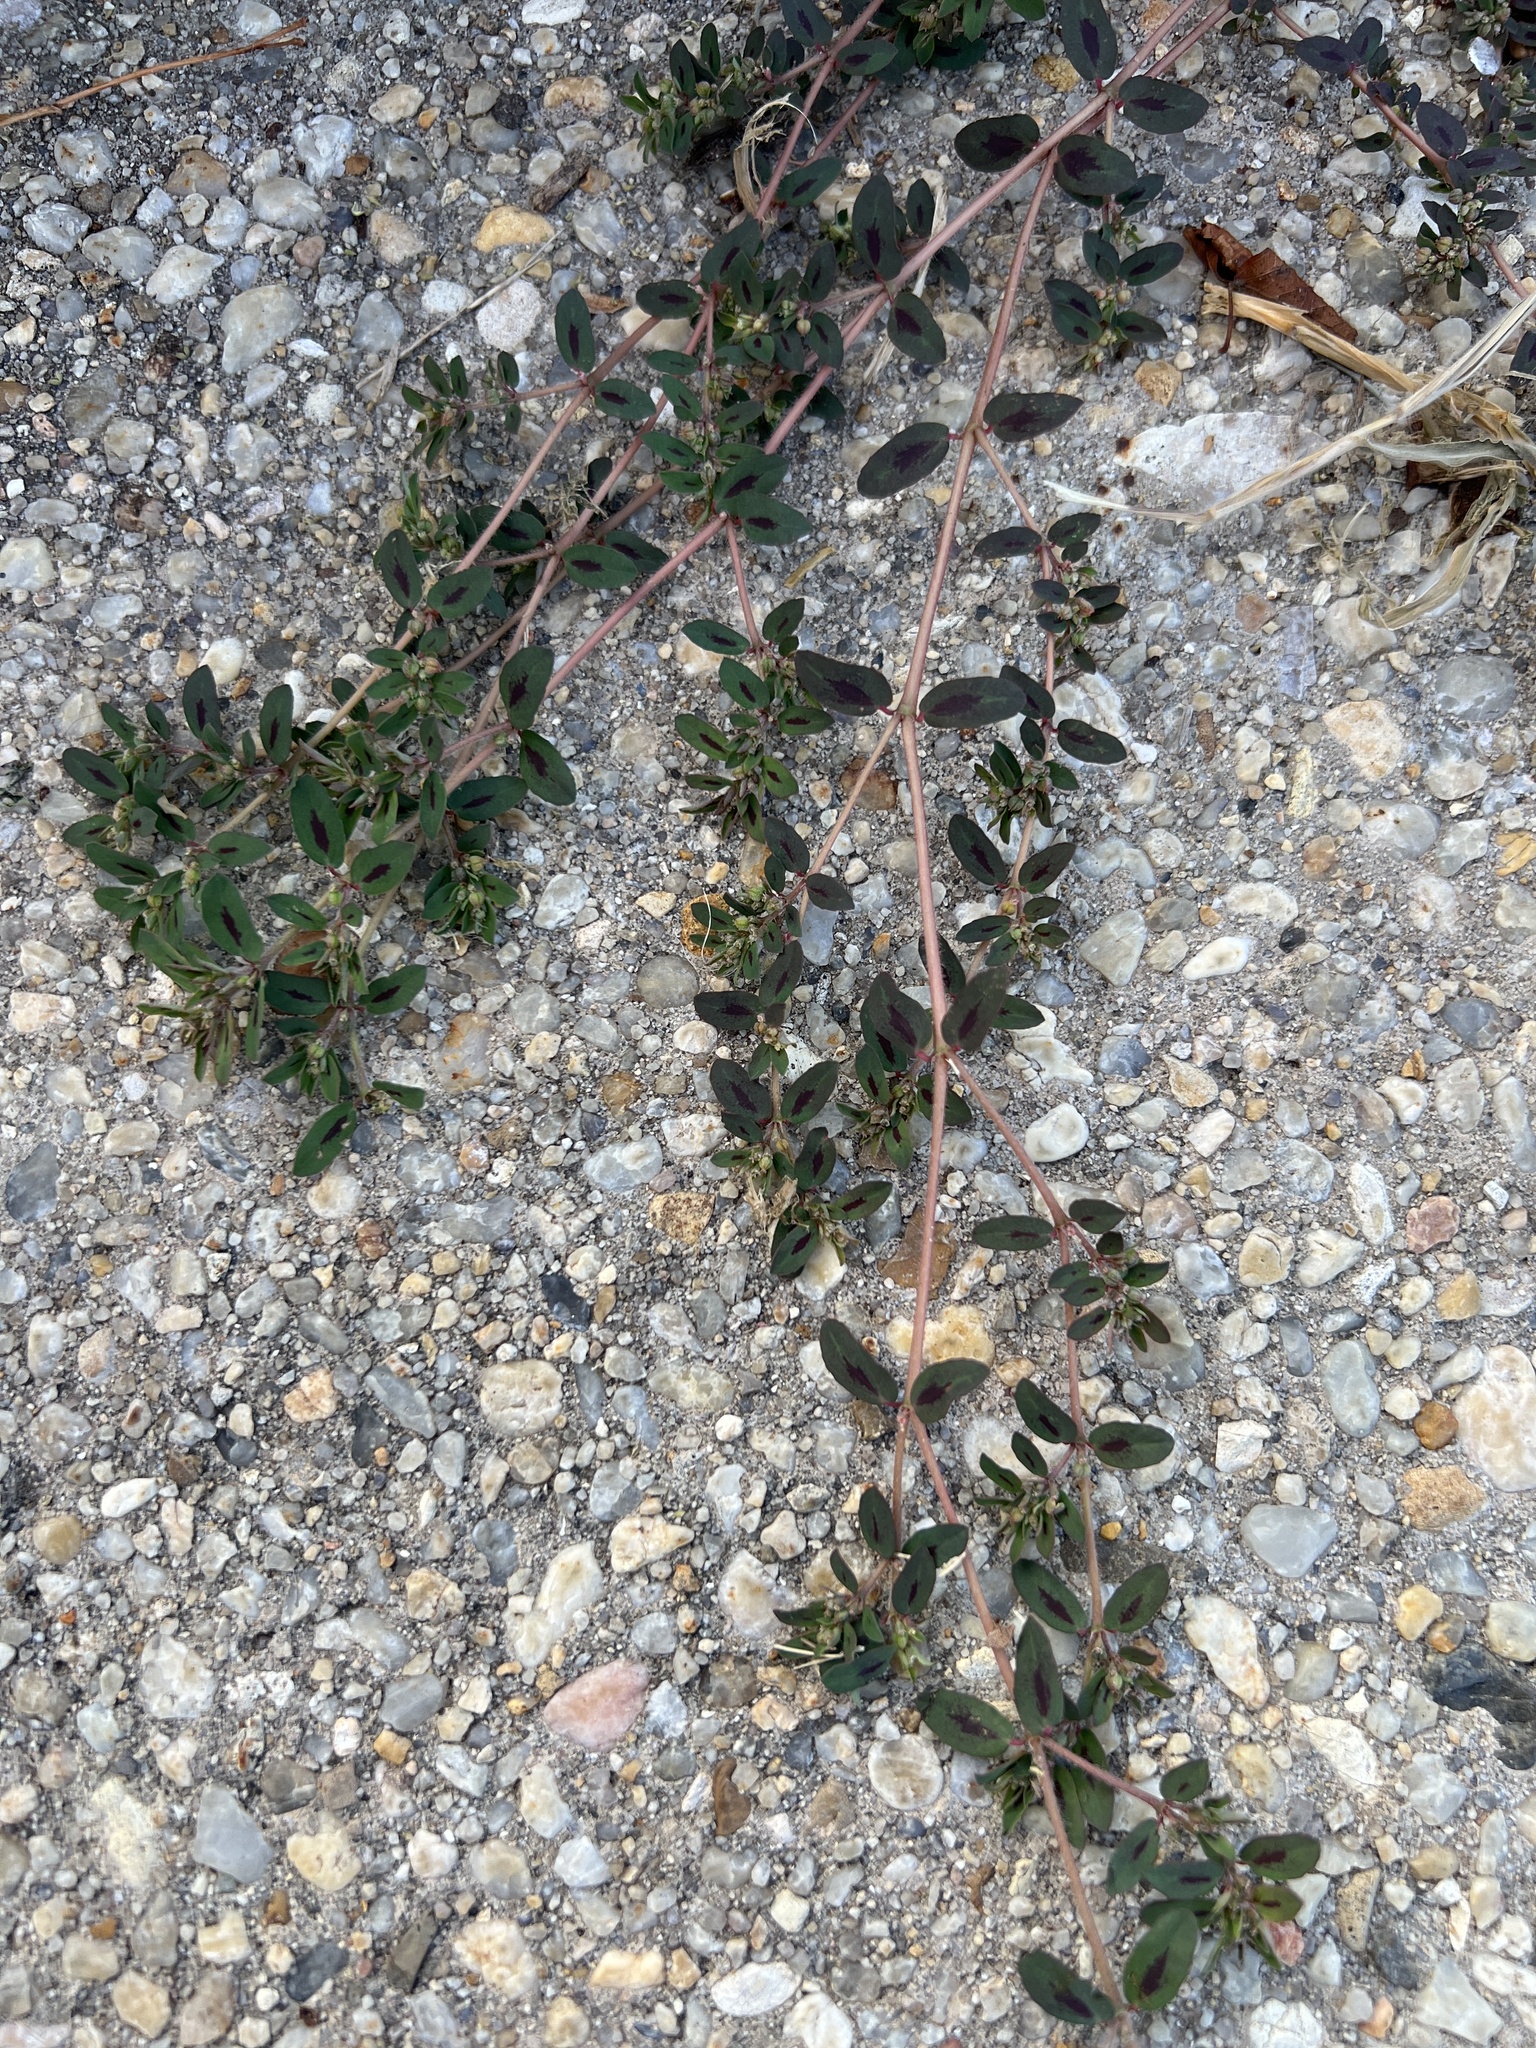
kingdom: Plantae
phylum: Tracheophyta
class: Magnoliopsida
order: Malpighiales
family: Euphorbiaceae
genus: Euphorbia
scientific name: Euphorbia maculata
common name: Spotted spurge
